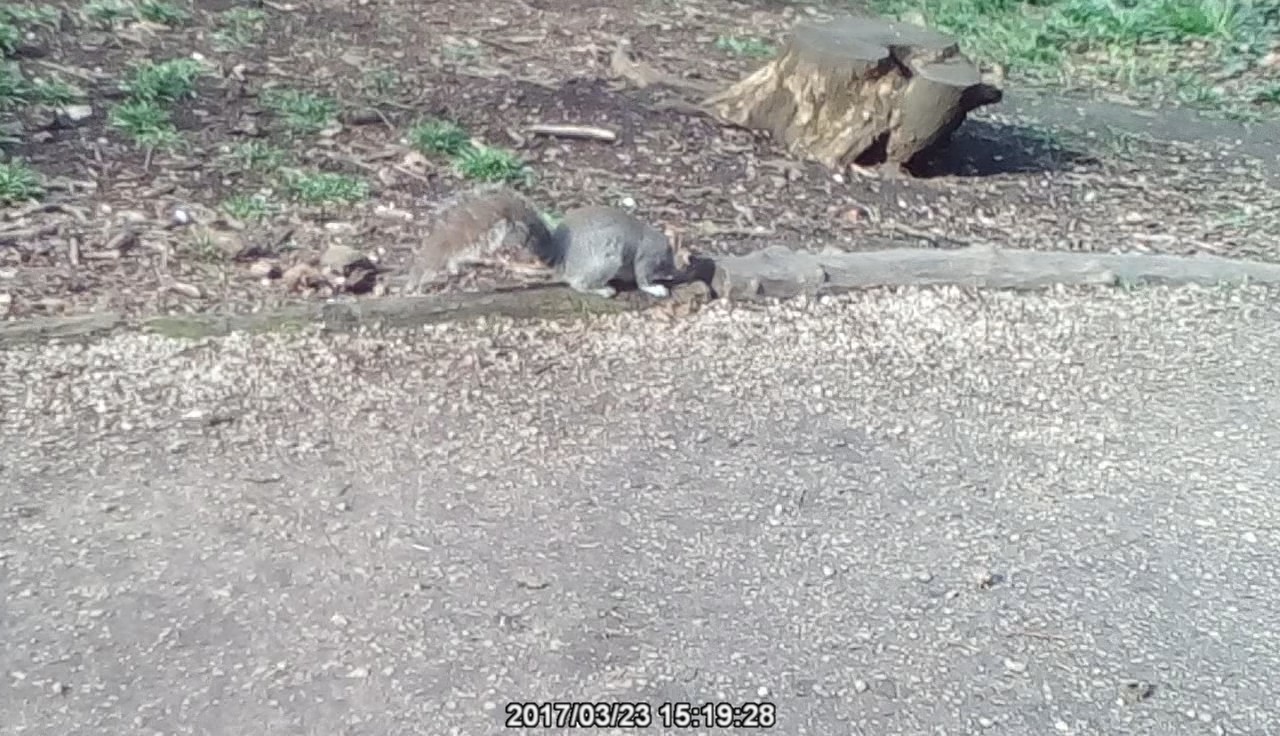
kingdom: Animalia
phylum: Chordata
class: Mammalia
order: Rodentia
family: Sciuridae
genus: Sciurus
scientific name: Sciurus carolinensis
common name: Eastern gray squirrel
